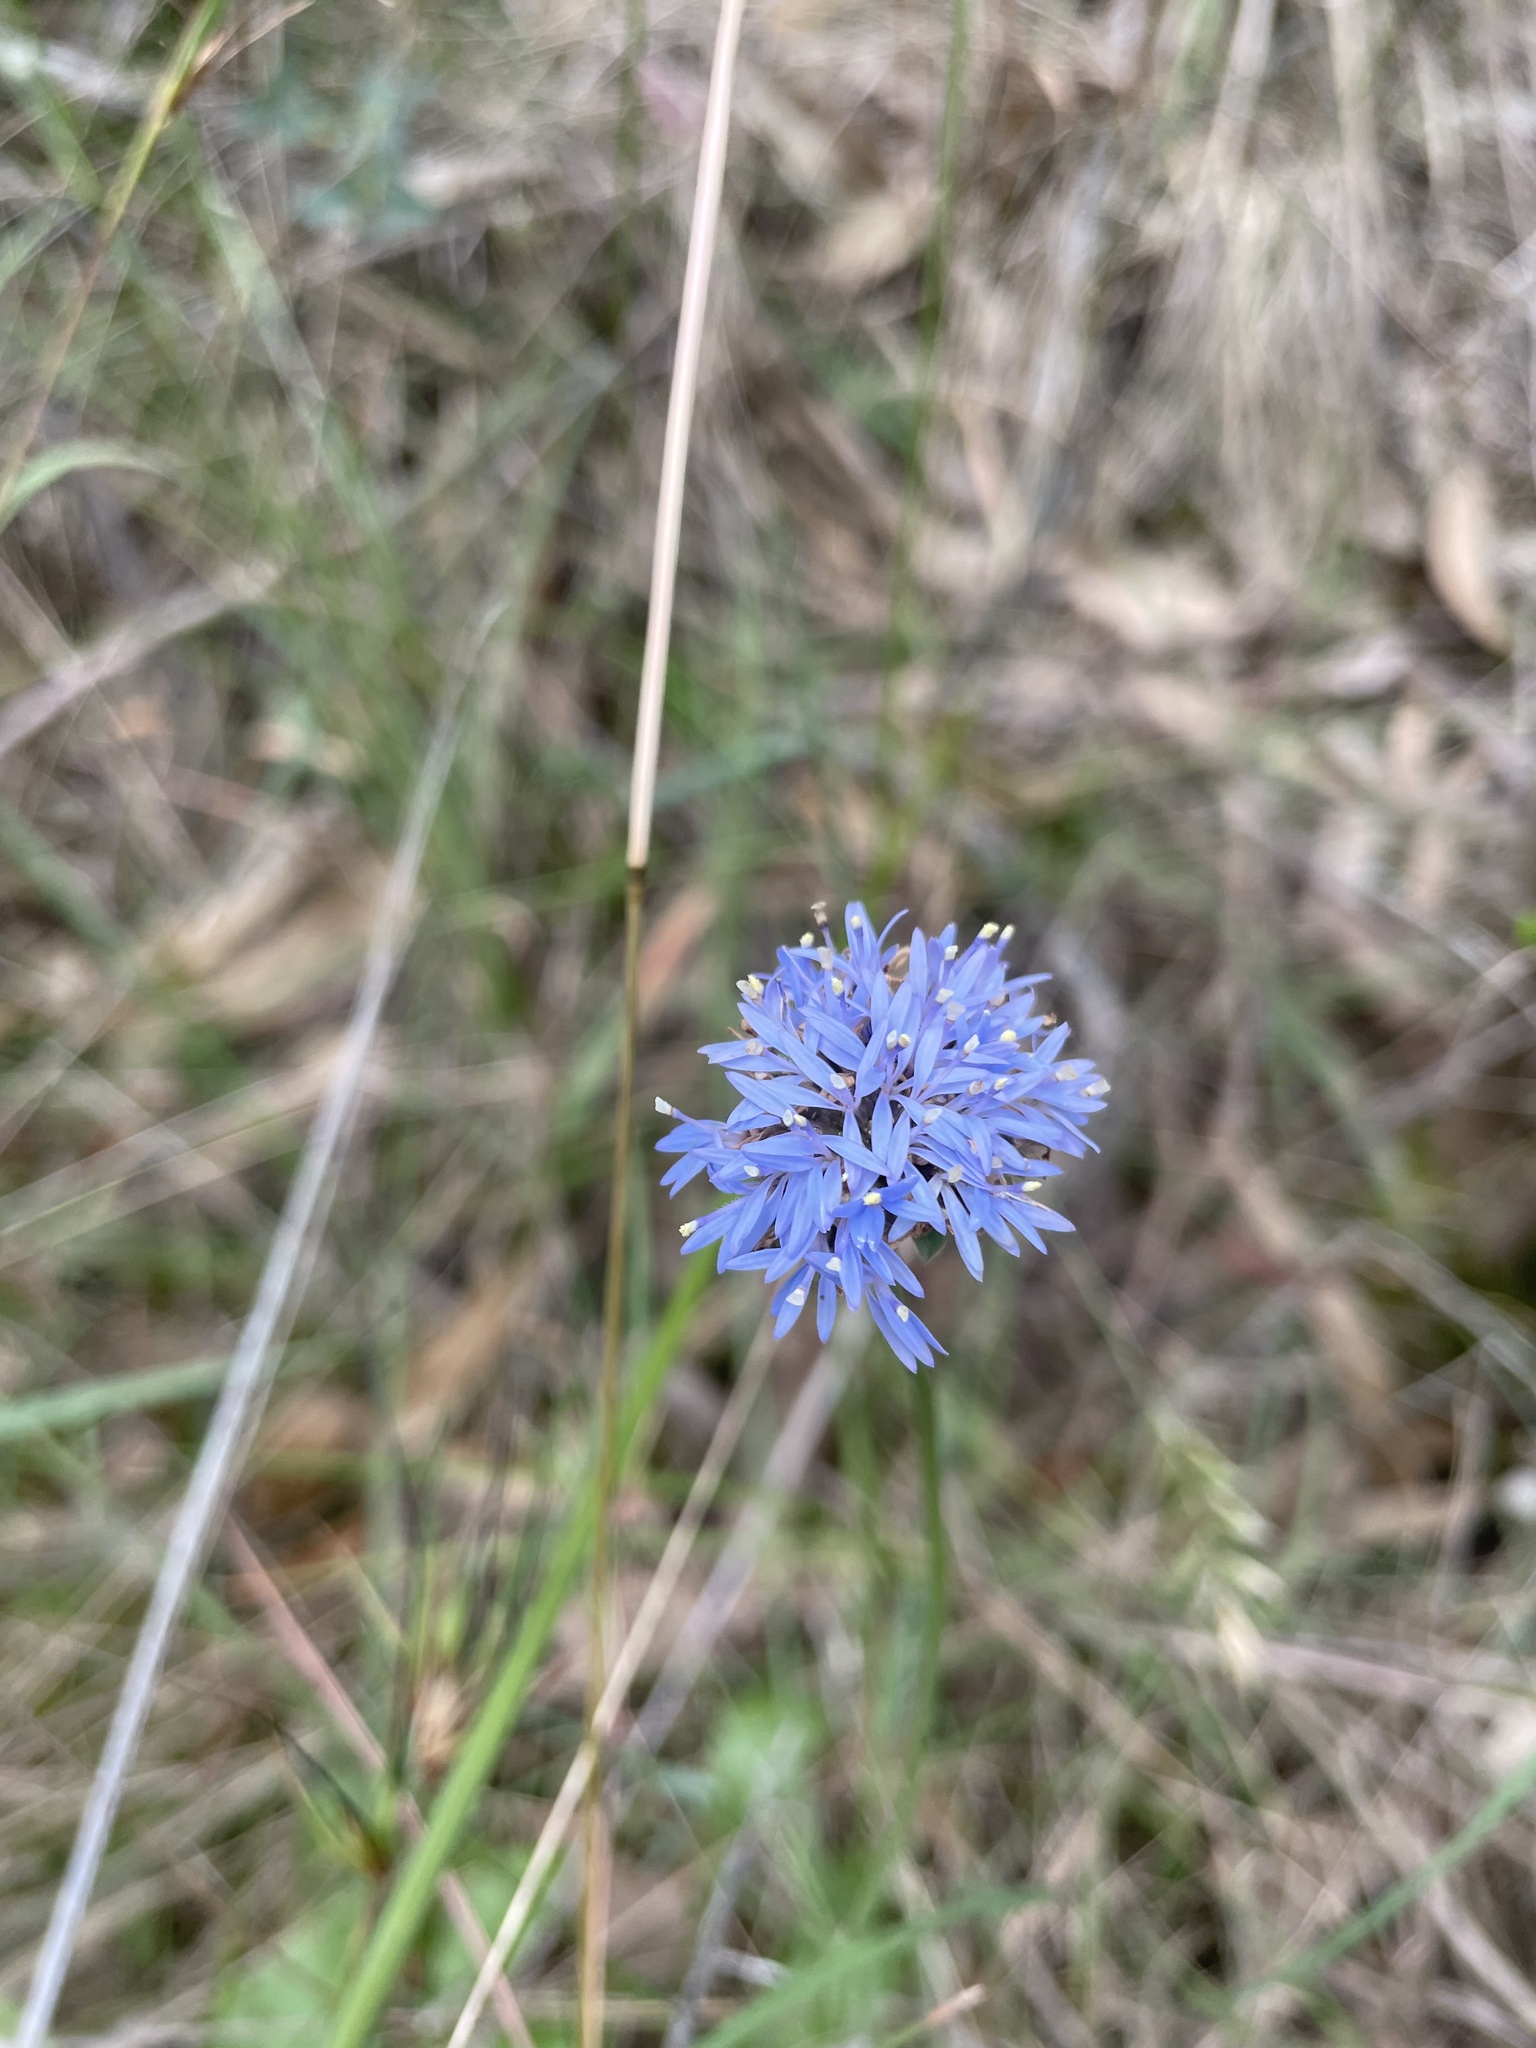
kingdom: Plantae
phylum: Tracheophyta
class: Magnoliopsida
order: Asterales
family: Goodeniaceae
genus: Brunonia
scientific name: Brunonia australis
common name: Blue pincushion
